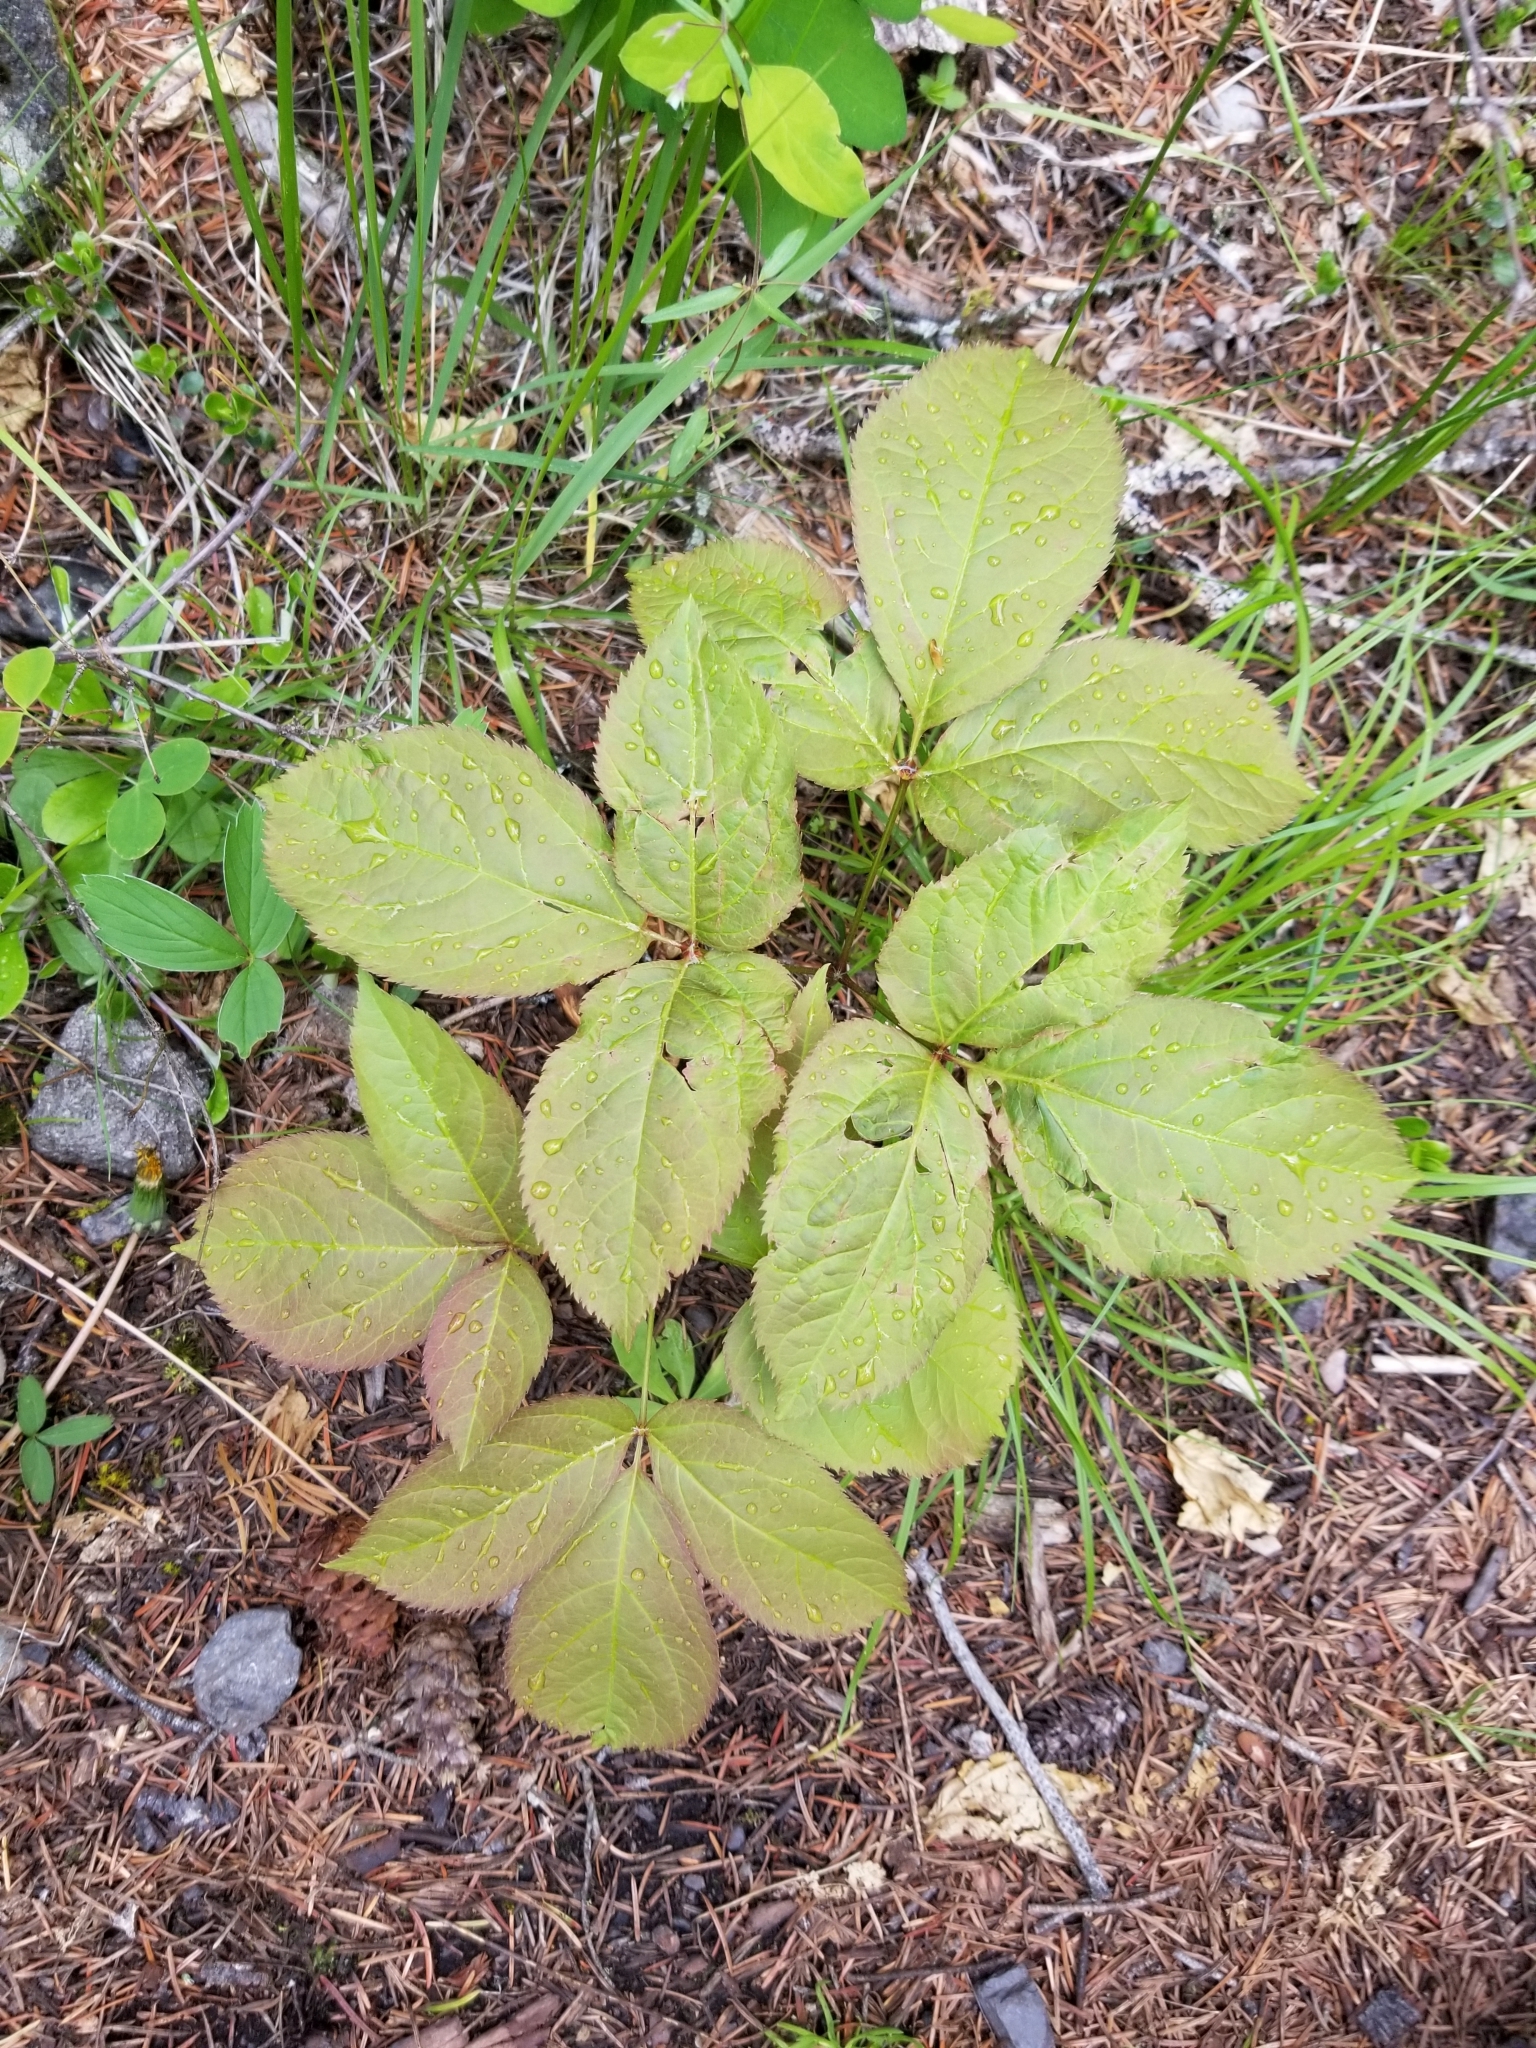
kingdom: Plantae
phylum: Tracheophyta
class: Magnoliopsida
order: Apiales
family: Araliaceae
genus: Aralia
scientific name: Aralia nudicaulis
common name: Wild sarsaparilla
